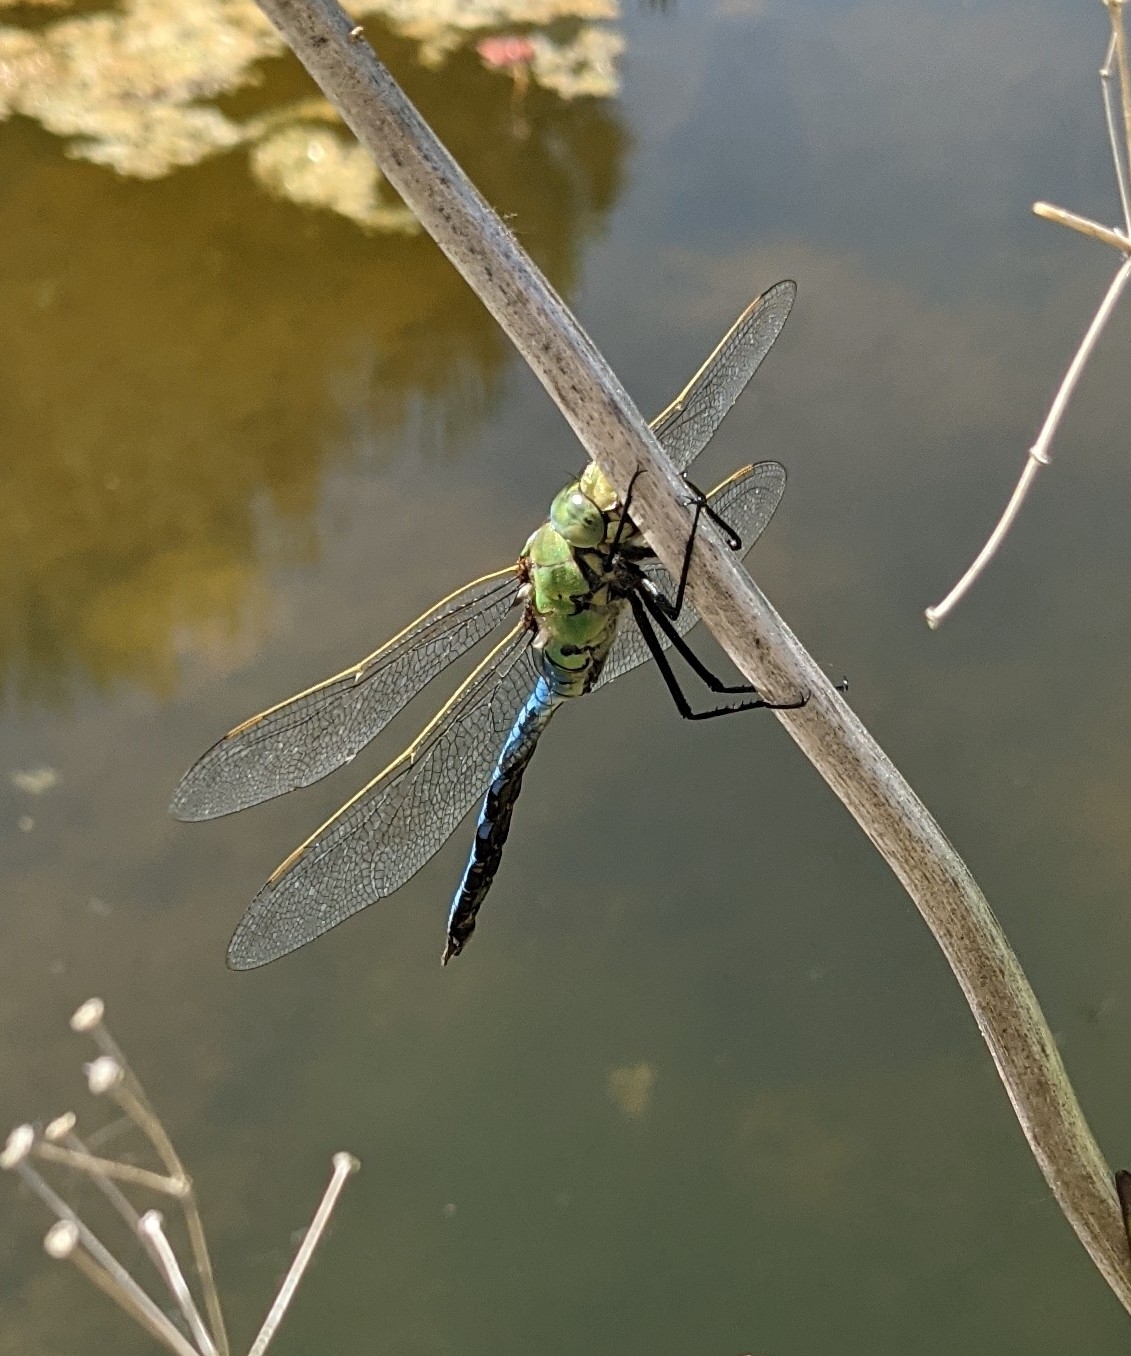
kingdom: Animalia
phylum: Arthropoda
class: Insecta
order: Odonata
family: Aeshnidae
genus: Anax
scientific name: Anax imperator
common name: Emperor dragonfly
